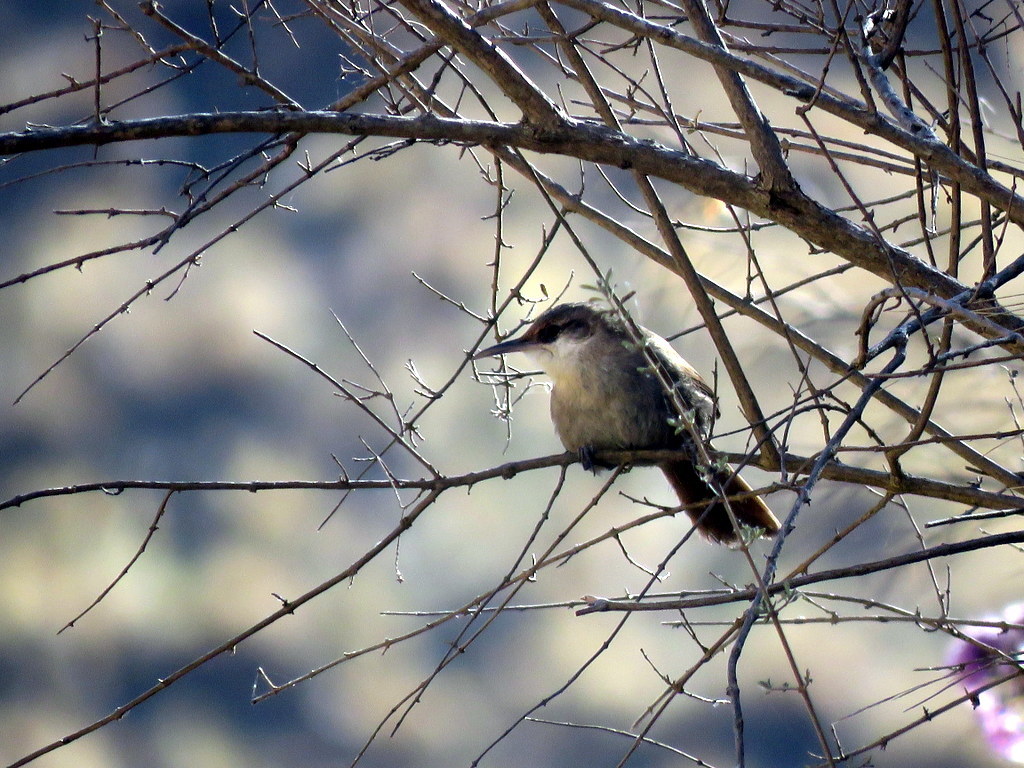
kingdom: Animalia
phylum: Chordata
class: Aves
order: Passeriformes
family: Furnariidae
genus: Upucerthia
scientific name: Upucerthia certhioides
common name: Chaco earthcreeper
